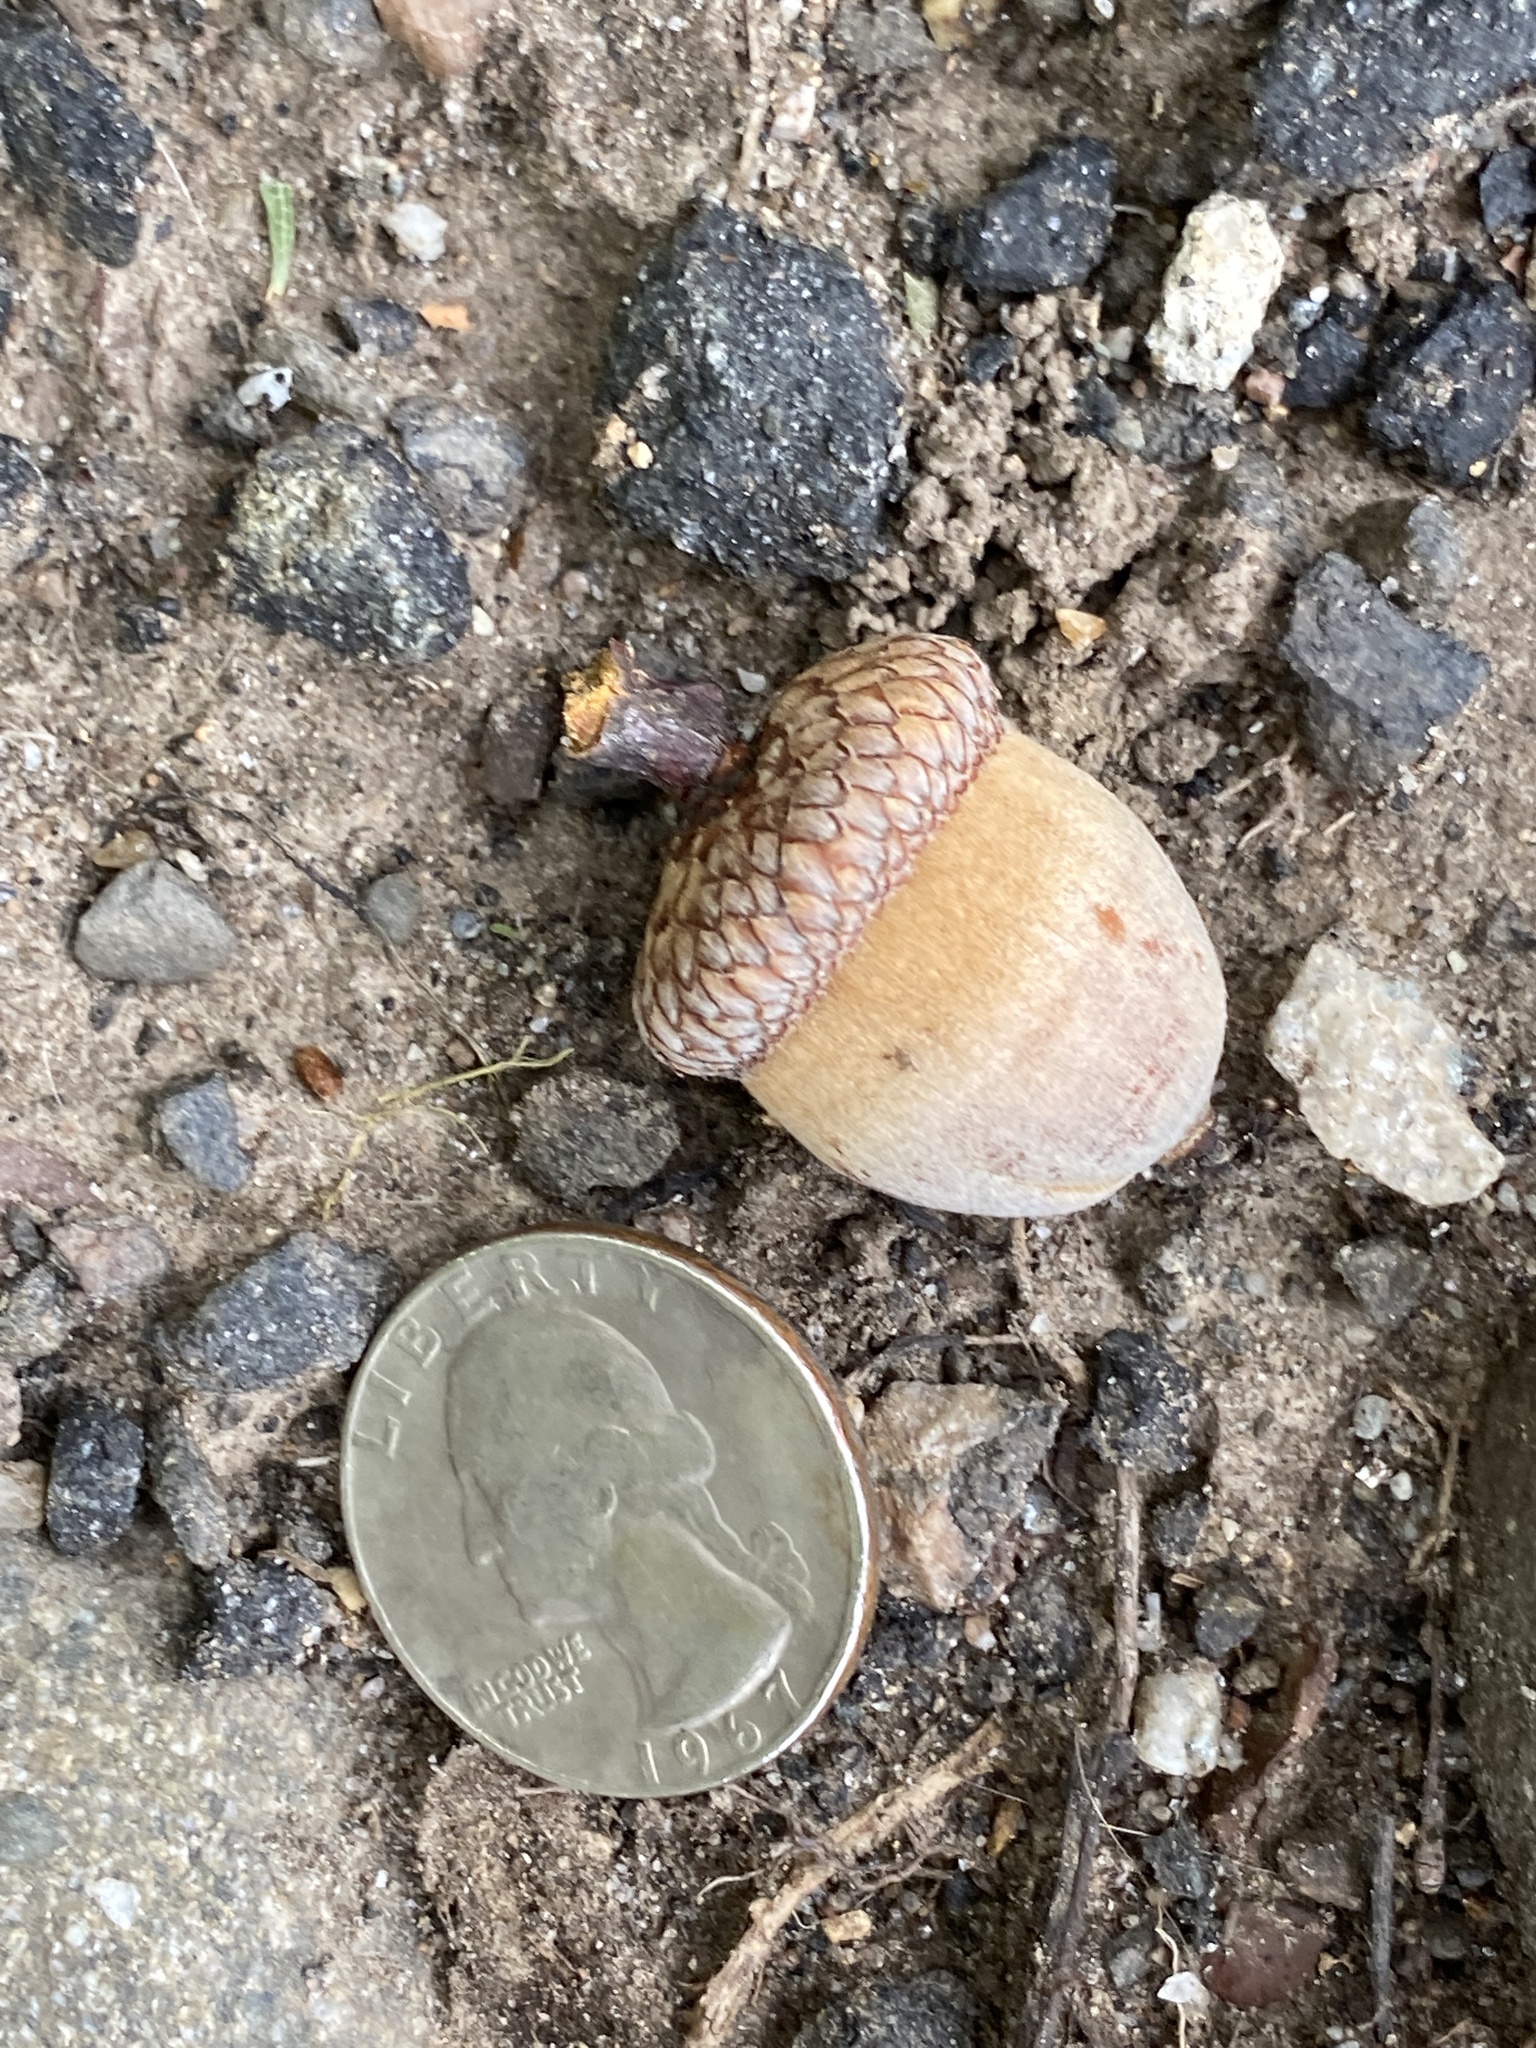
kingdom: Plantae
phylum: Tracheophyta
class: Magnoliopsida
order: Fagales
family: Fagaceae
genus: Quercus
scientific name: Quercus rubra
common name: Red oak
